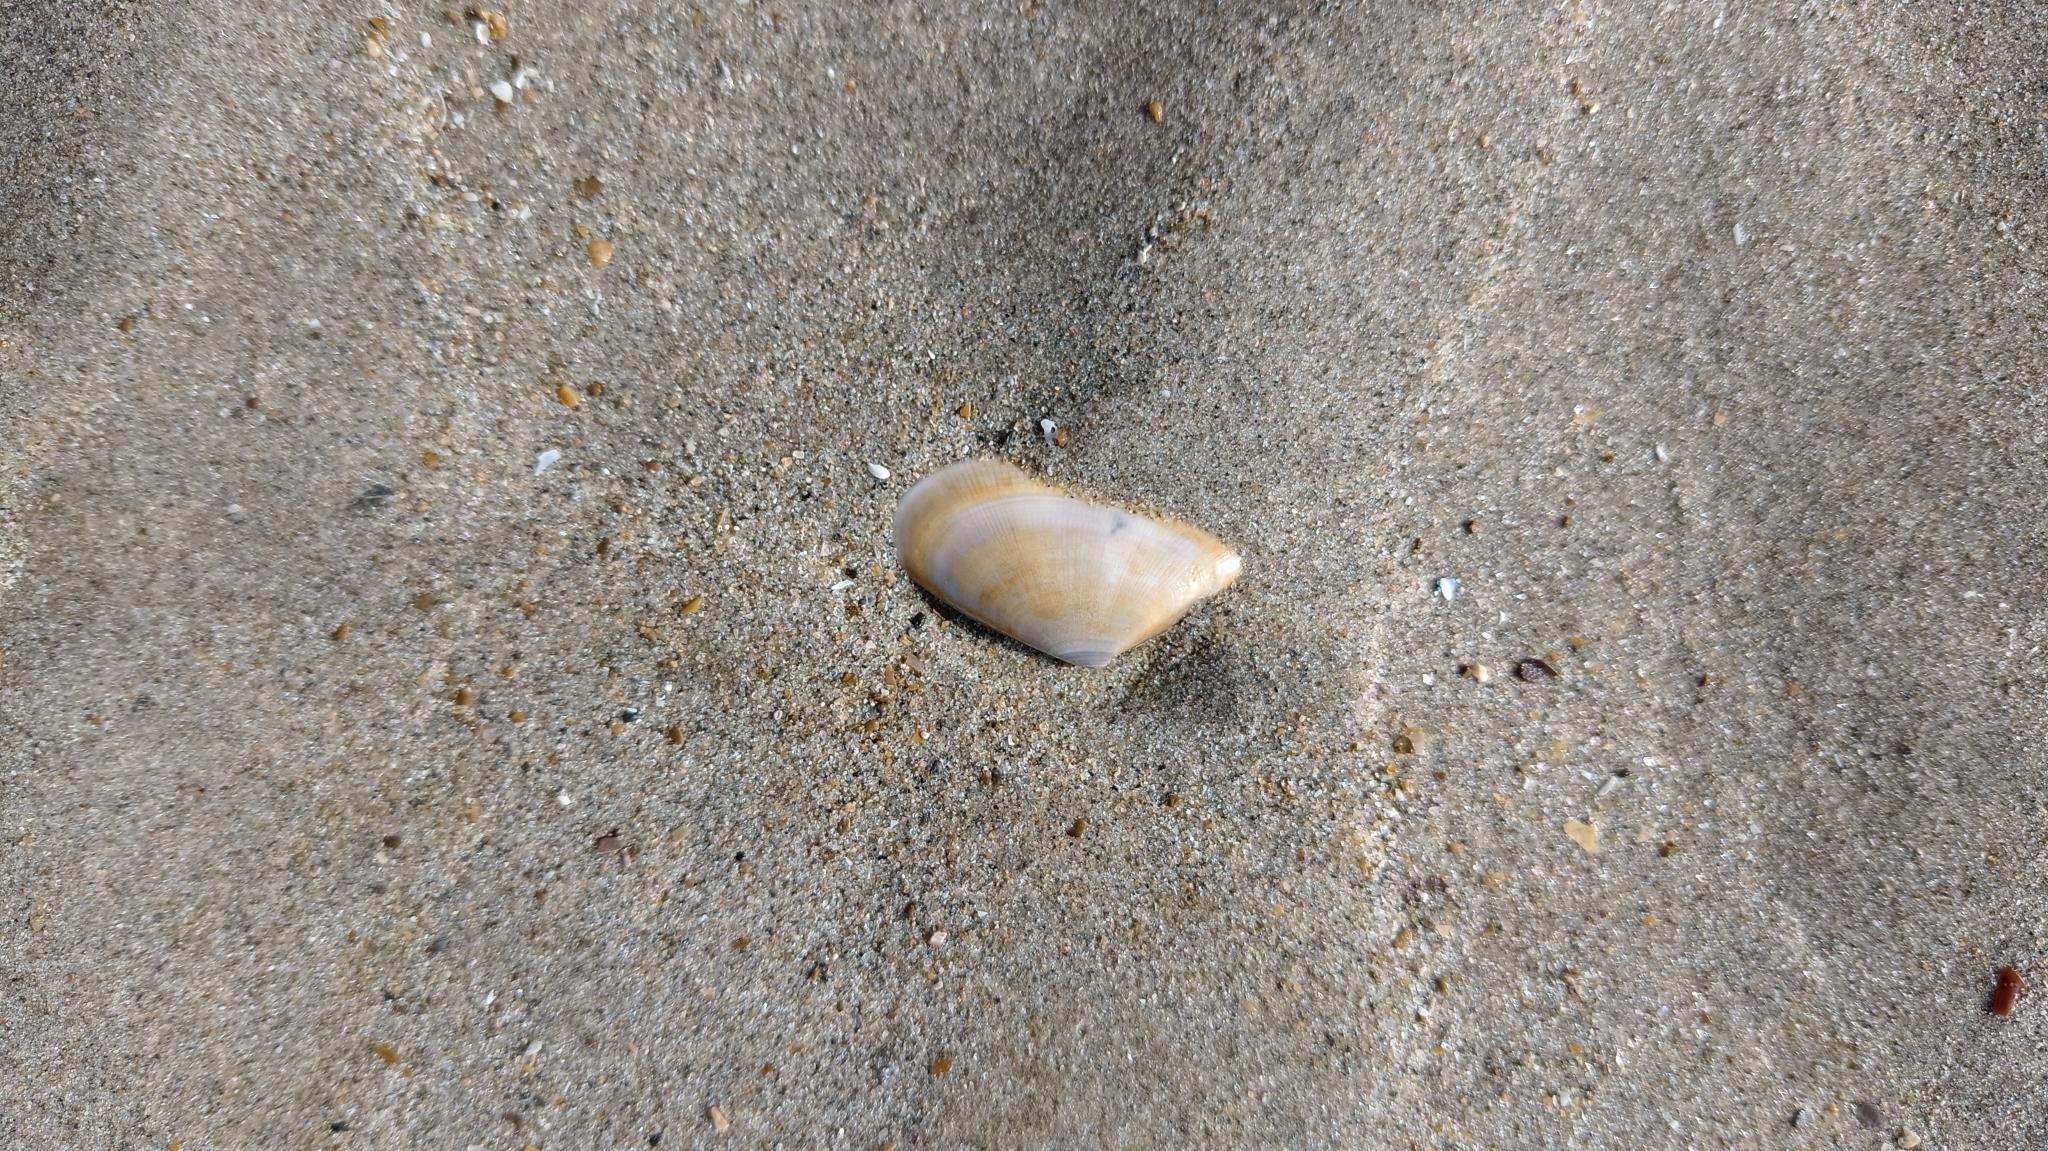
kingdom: Animalia
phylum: Mollusca
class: Bivalvia
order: Cardiida
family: Donacidae
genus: Donax
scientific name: Donax vittatus
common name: Banded wedge-shell
